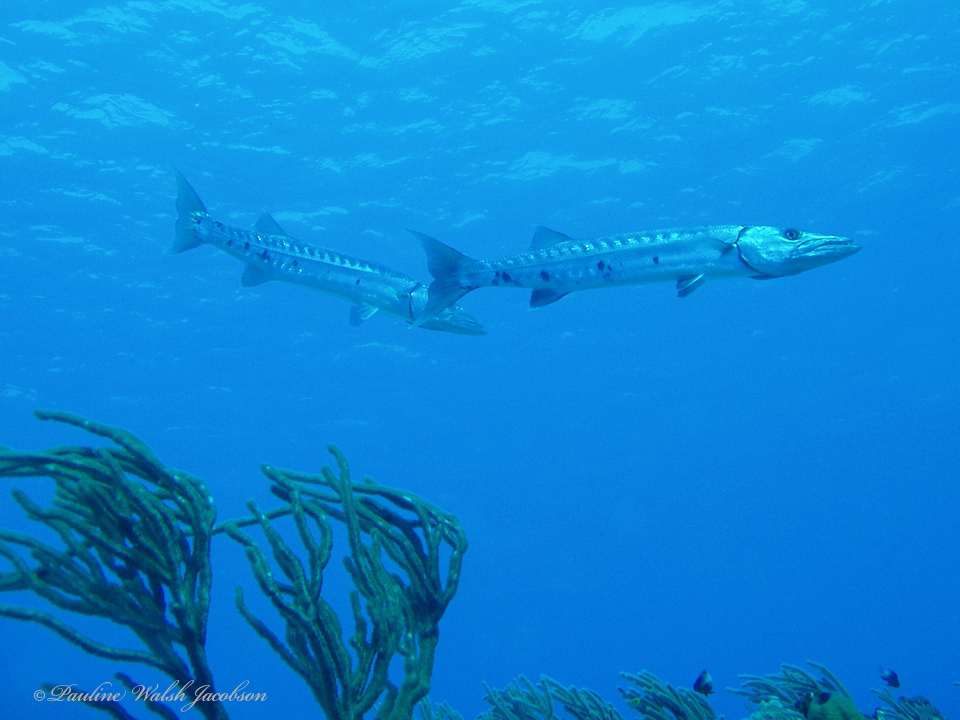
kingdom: Animalia
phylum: Chordata
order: Perciformes
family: Sphyraenidae
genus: Sphyraena
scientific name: Sphyraena barracuda
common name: Great barracuda
